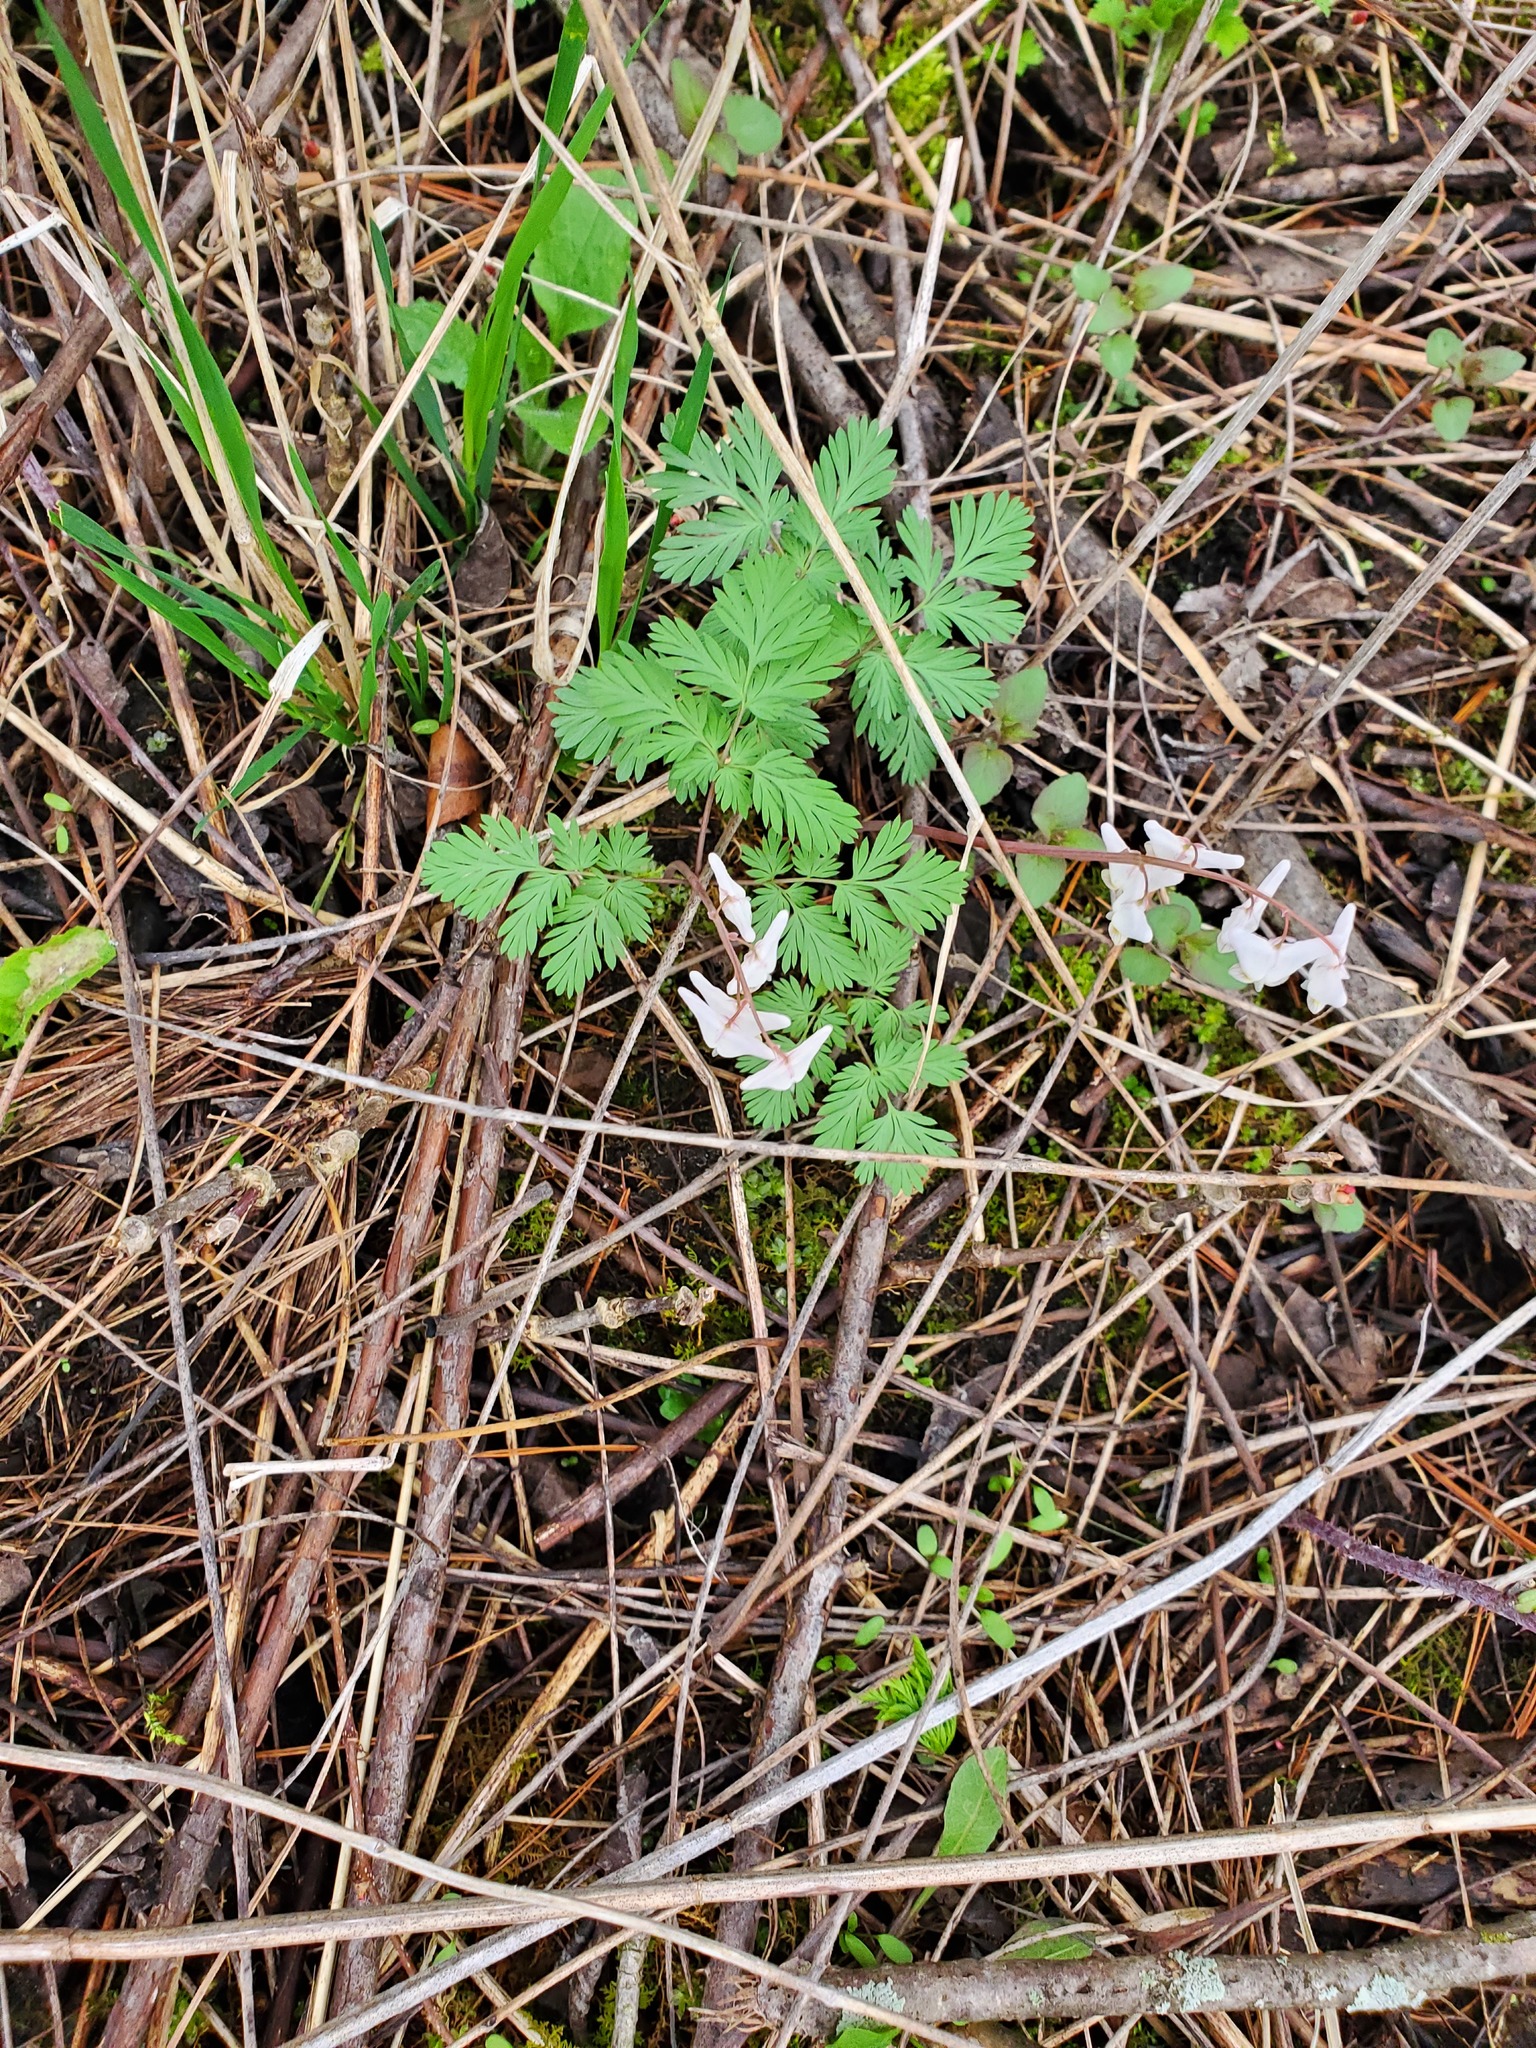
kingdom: Plantae
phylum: Tracheophyta
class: Magnoliopsida
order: Ranunculales
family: Papaveraceae
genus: Dicentra
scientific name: Dicentra cucullaria
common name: Dutchman's breeches
